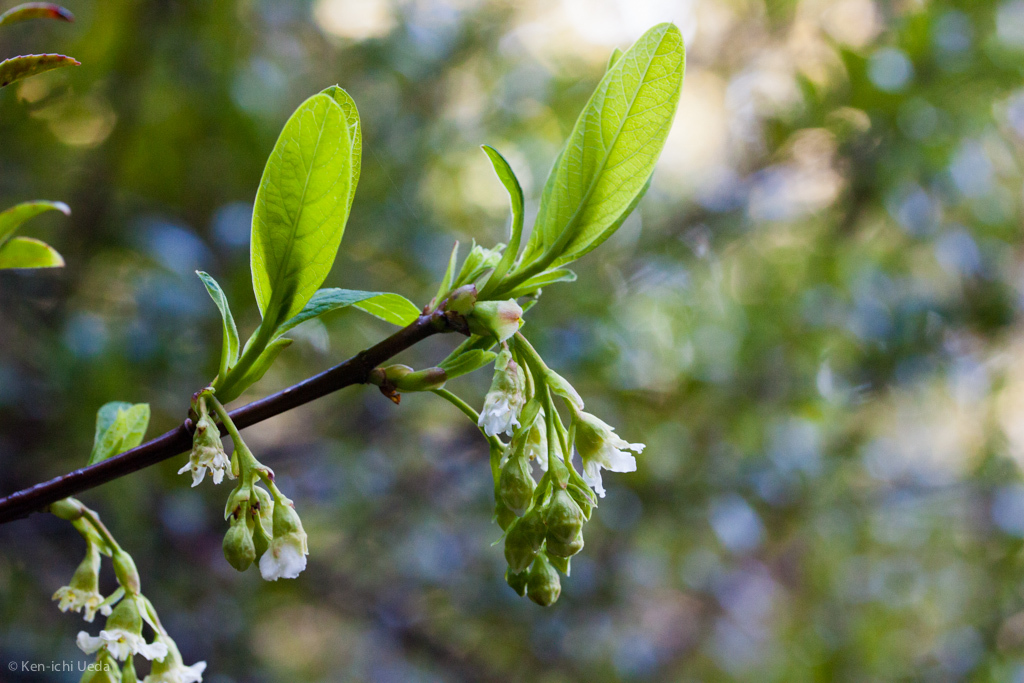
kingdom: Plantae
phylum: Tracheophyta
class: Magnoliopsida
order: Rosales
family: Rosaceae
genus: Oemleria
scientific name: Oemleria cerasiformis
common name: Osoberry
